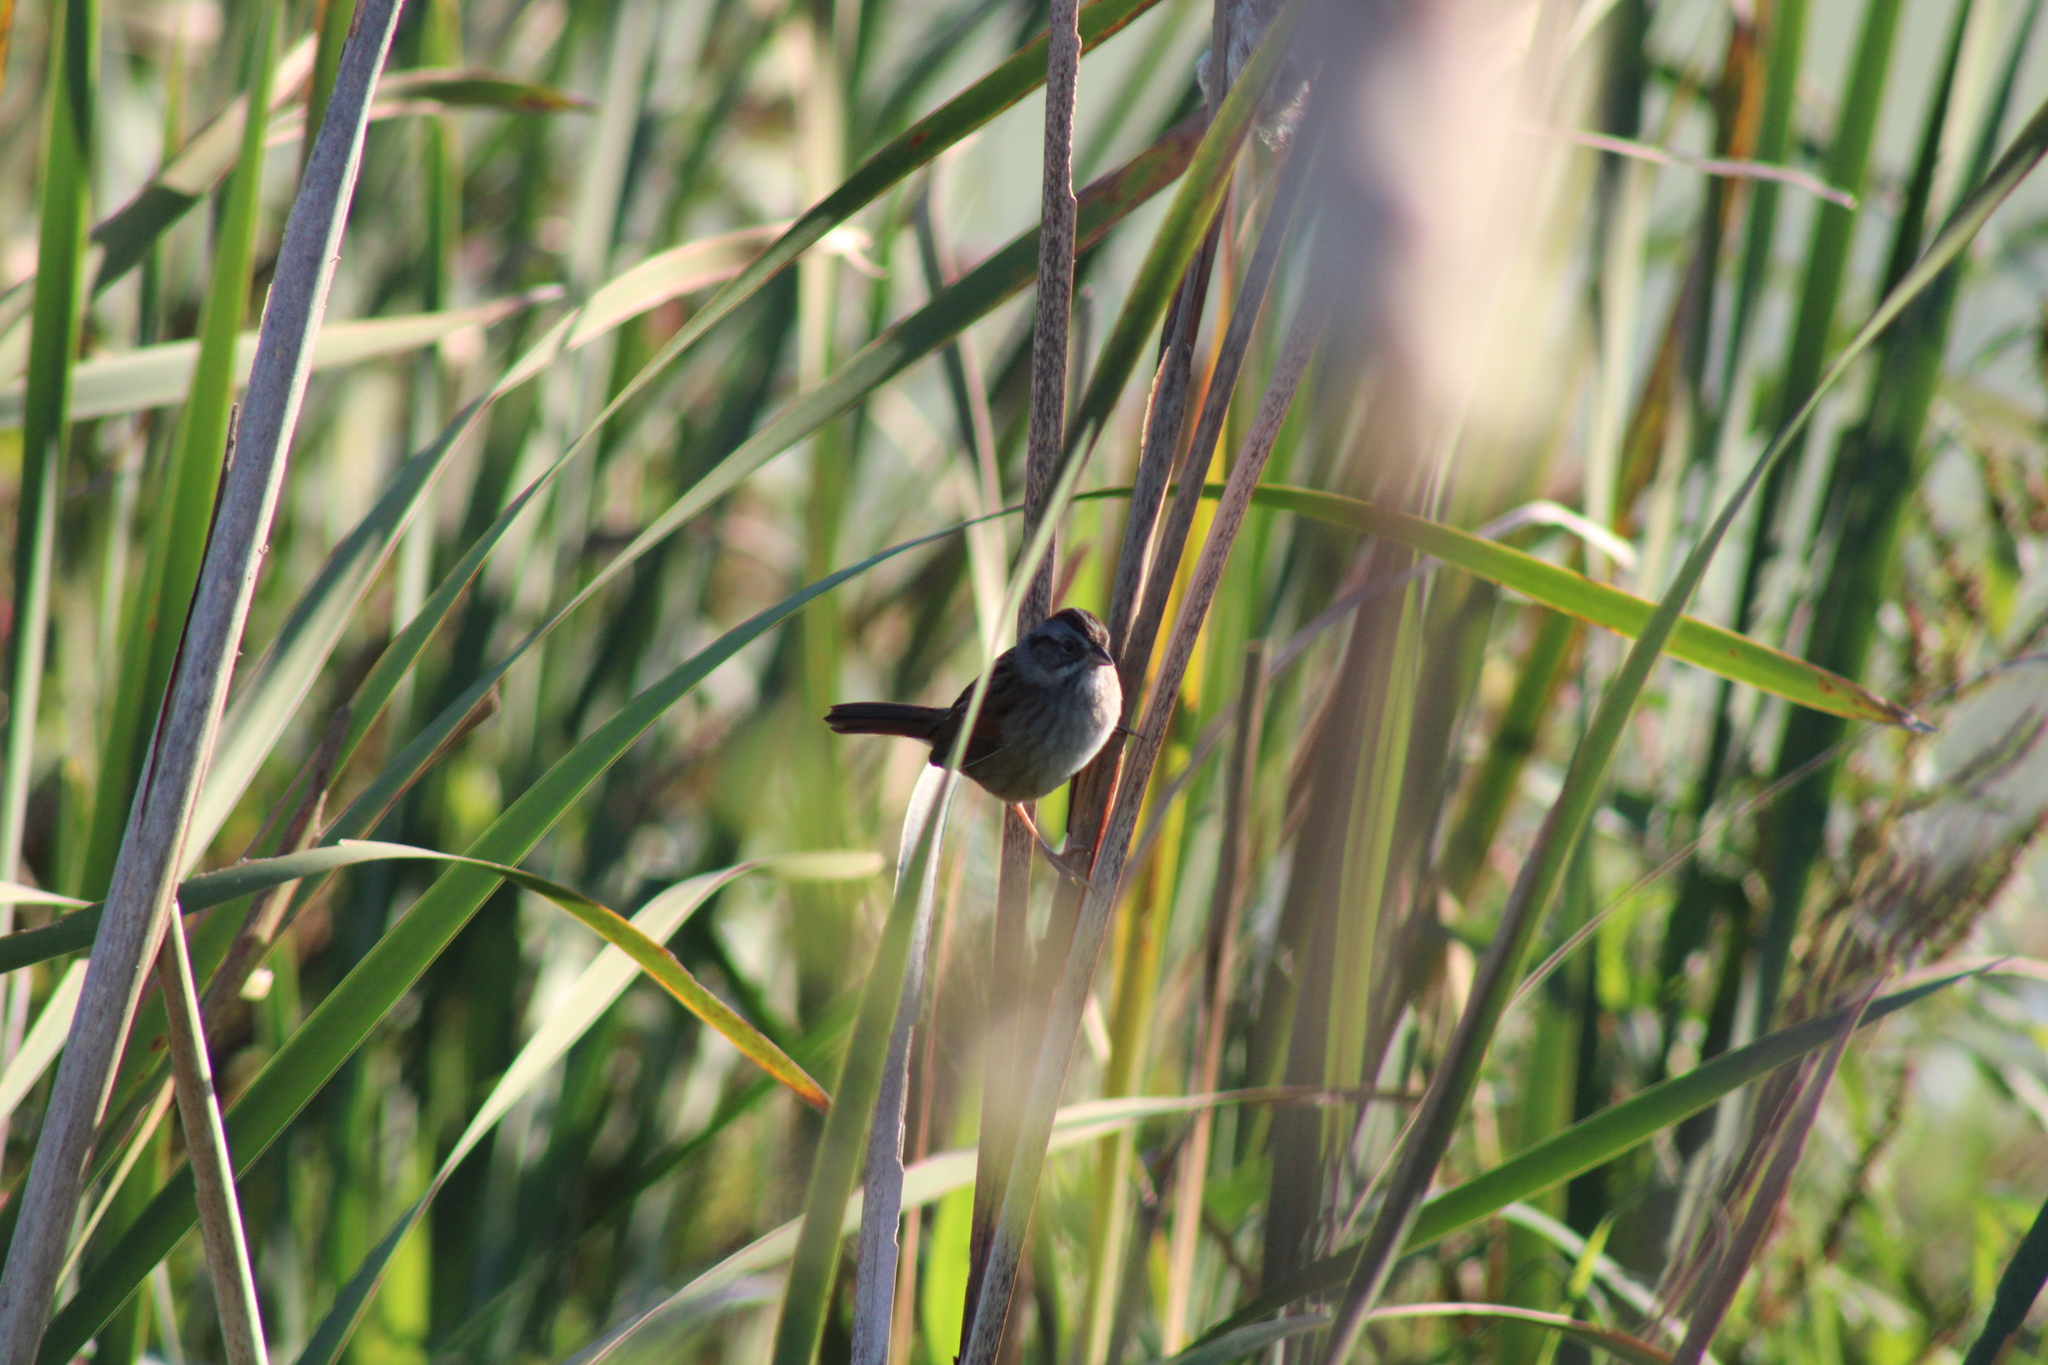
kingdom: Animalia
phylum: Chordata
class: Aves
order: Passeriformes
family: Passerellidae
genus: Melospiza
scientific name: Melospiza georgiana
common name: Swamp sparrow
